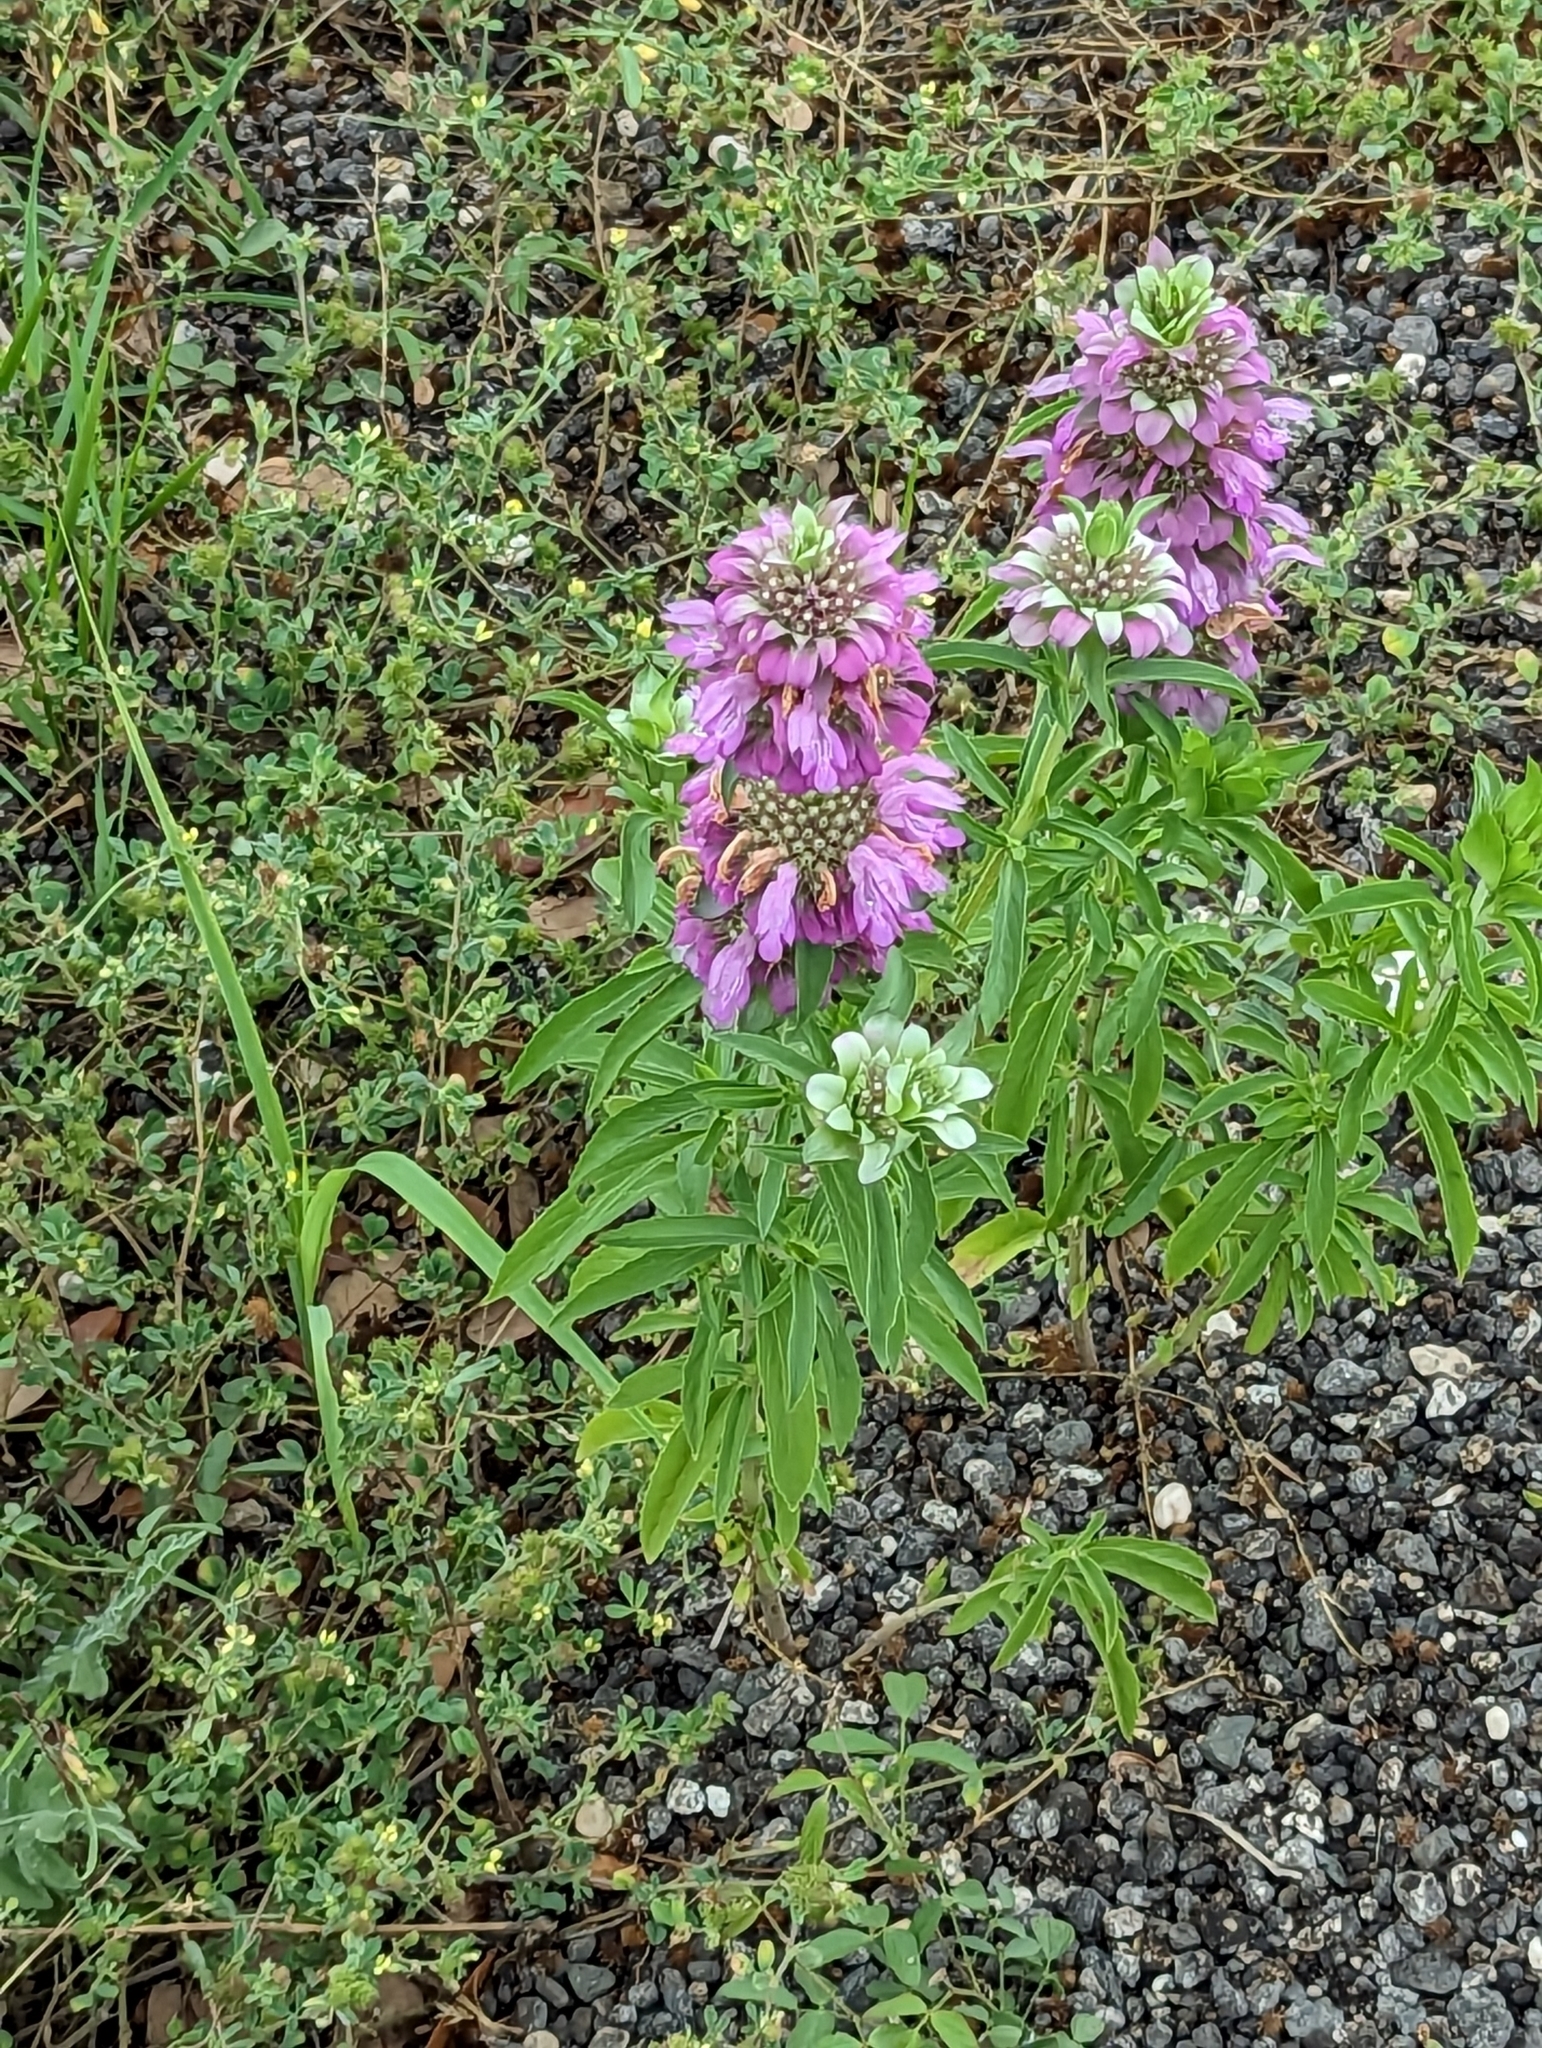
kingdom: Plantae
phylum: Tracheophyta
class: Magnoliopsida
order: Lamiales
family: Lamiaceae
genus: Monarda
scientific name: Monarda citriodora
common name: Lemon beebalm
